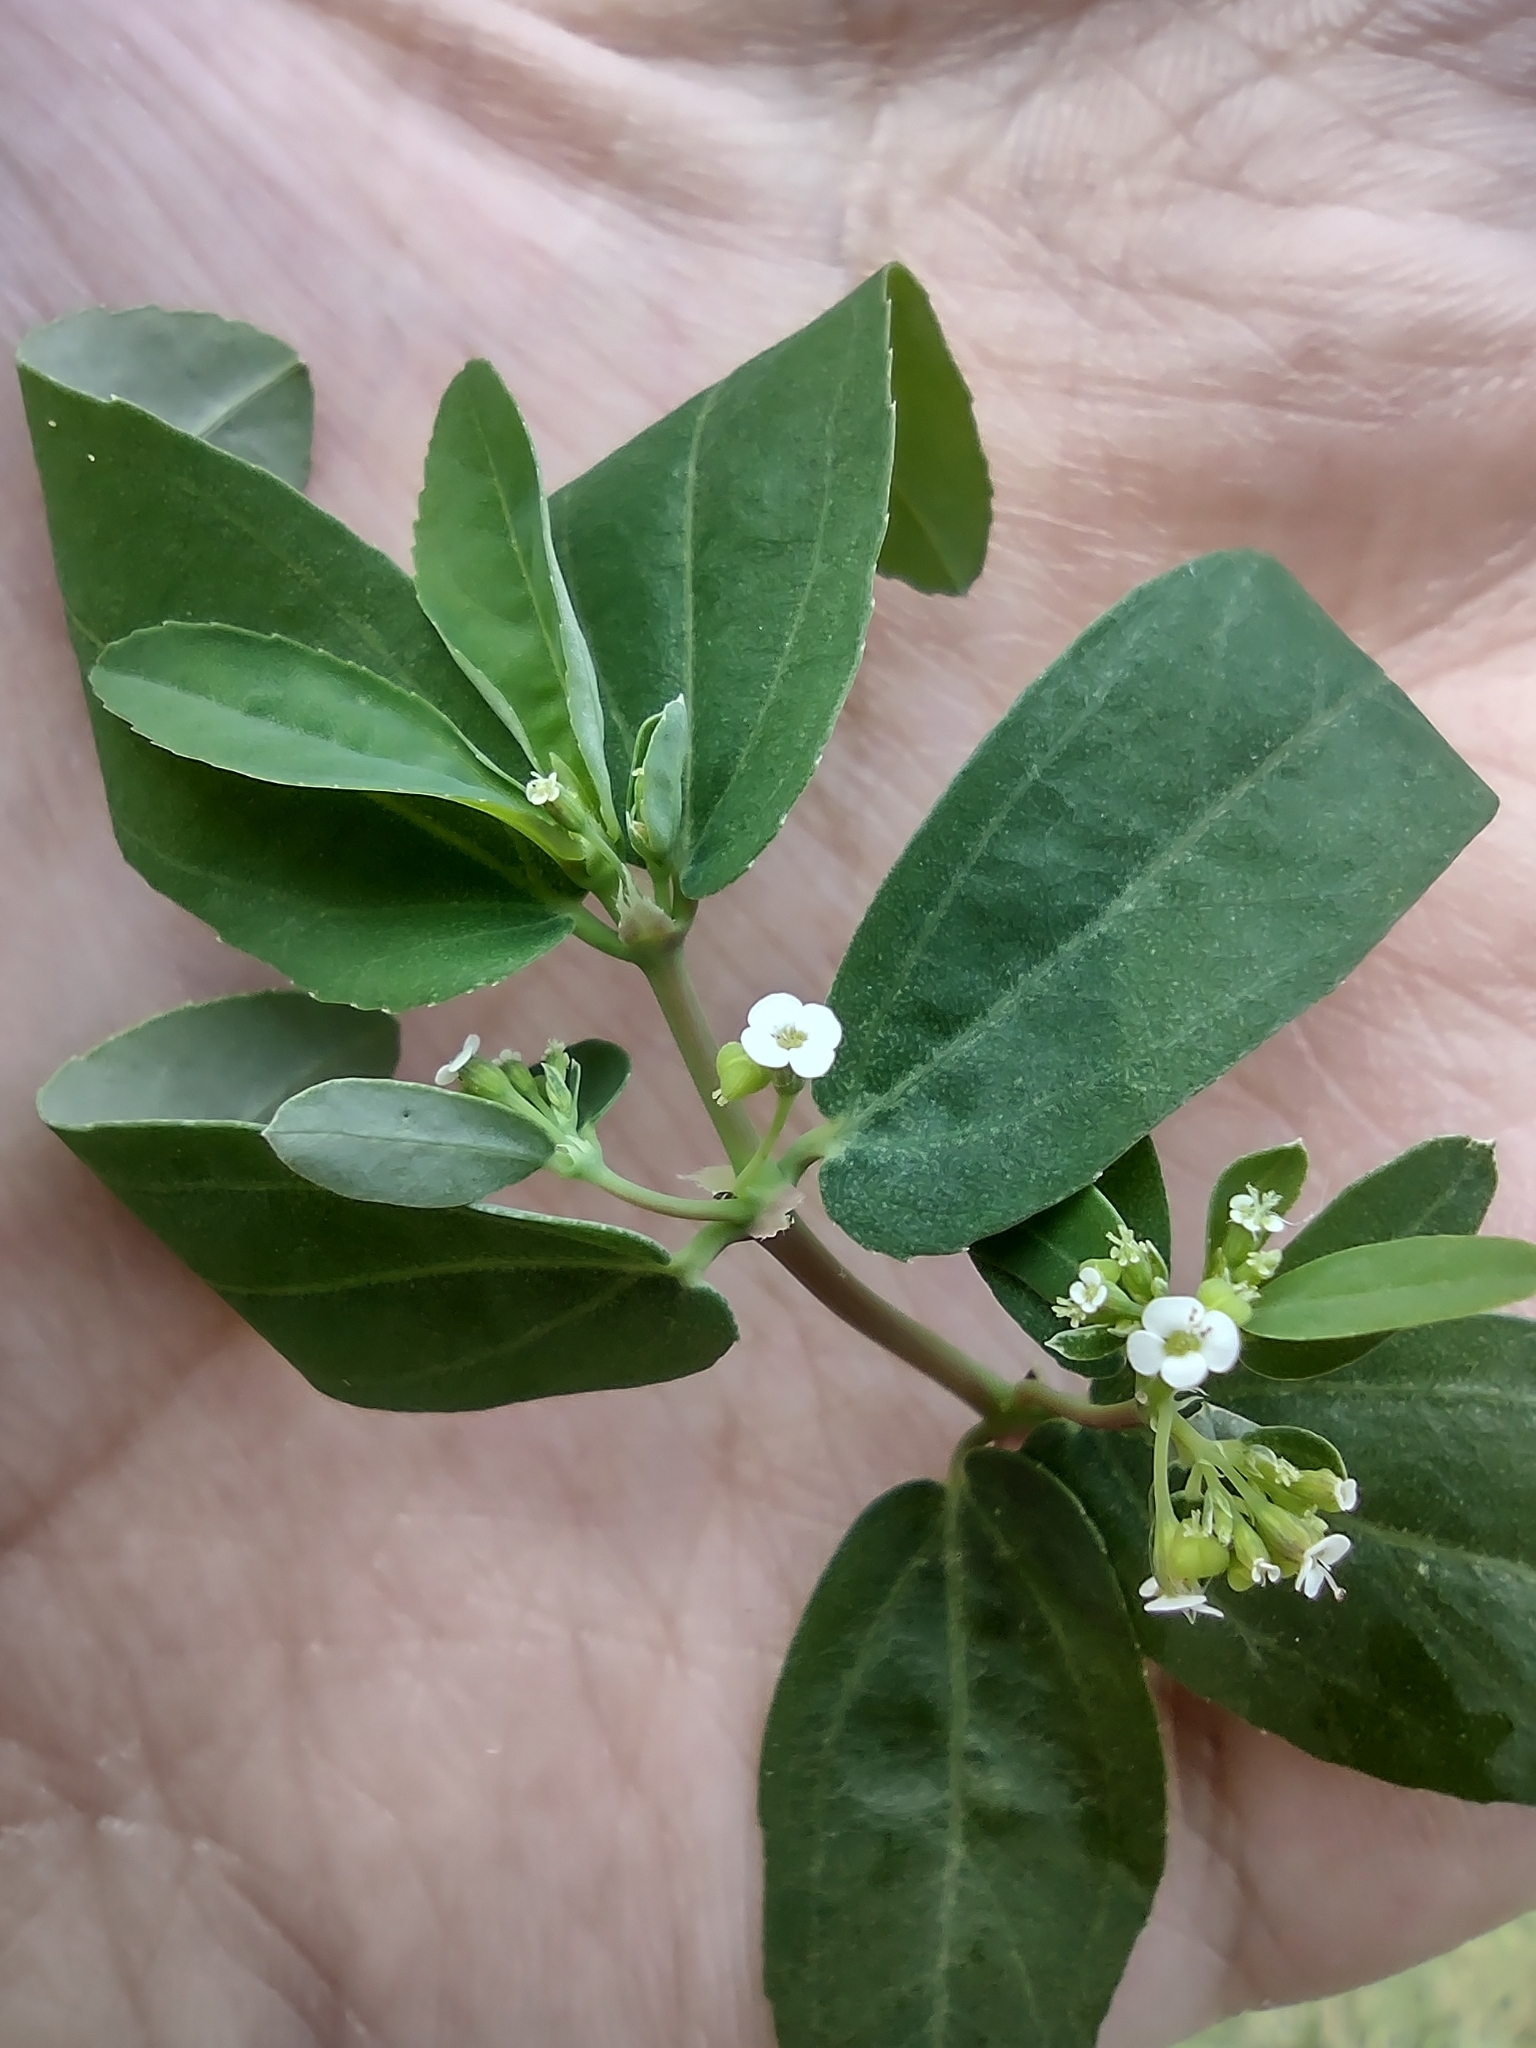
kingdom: Plantae
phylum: Tracheophyta
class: Magnoliopsida
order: Malpighiales
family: Euphorbiaceae
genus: Euphorbia
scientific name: Euphorbia hypericifolia
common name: Graceful sandmat
